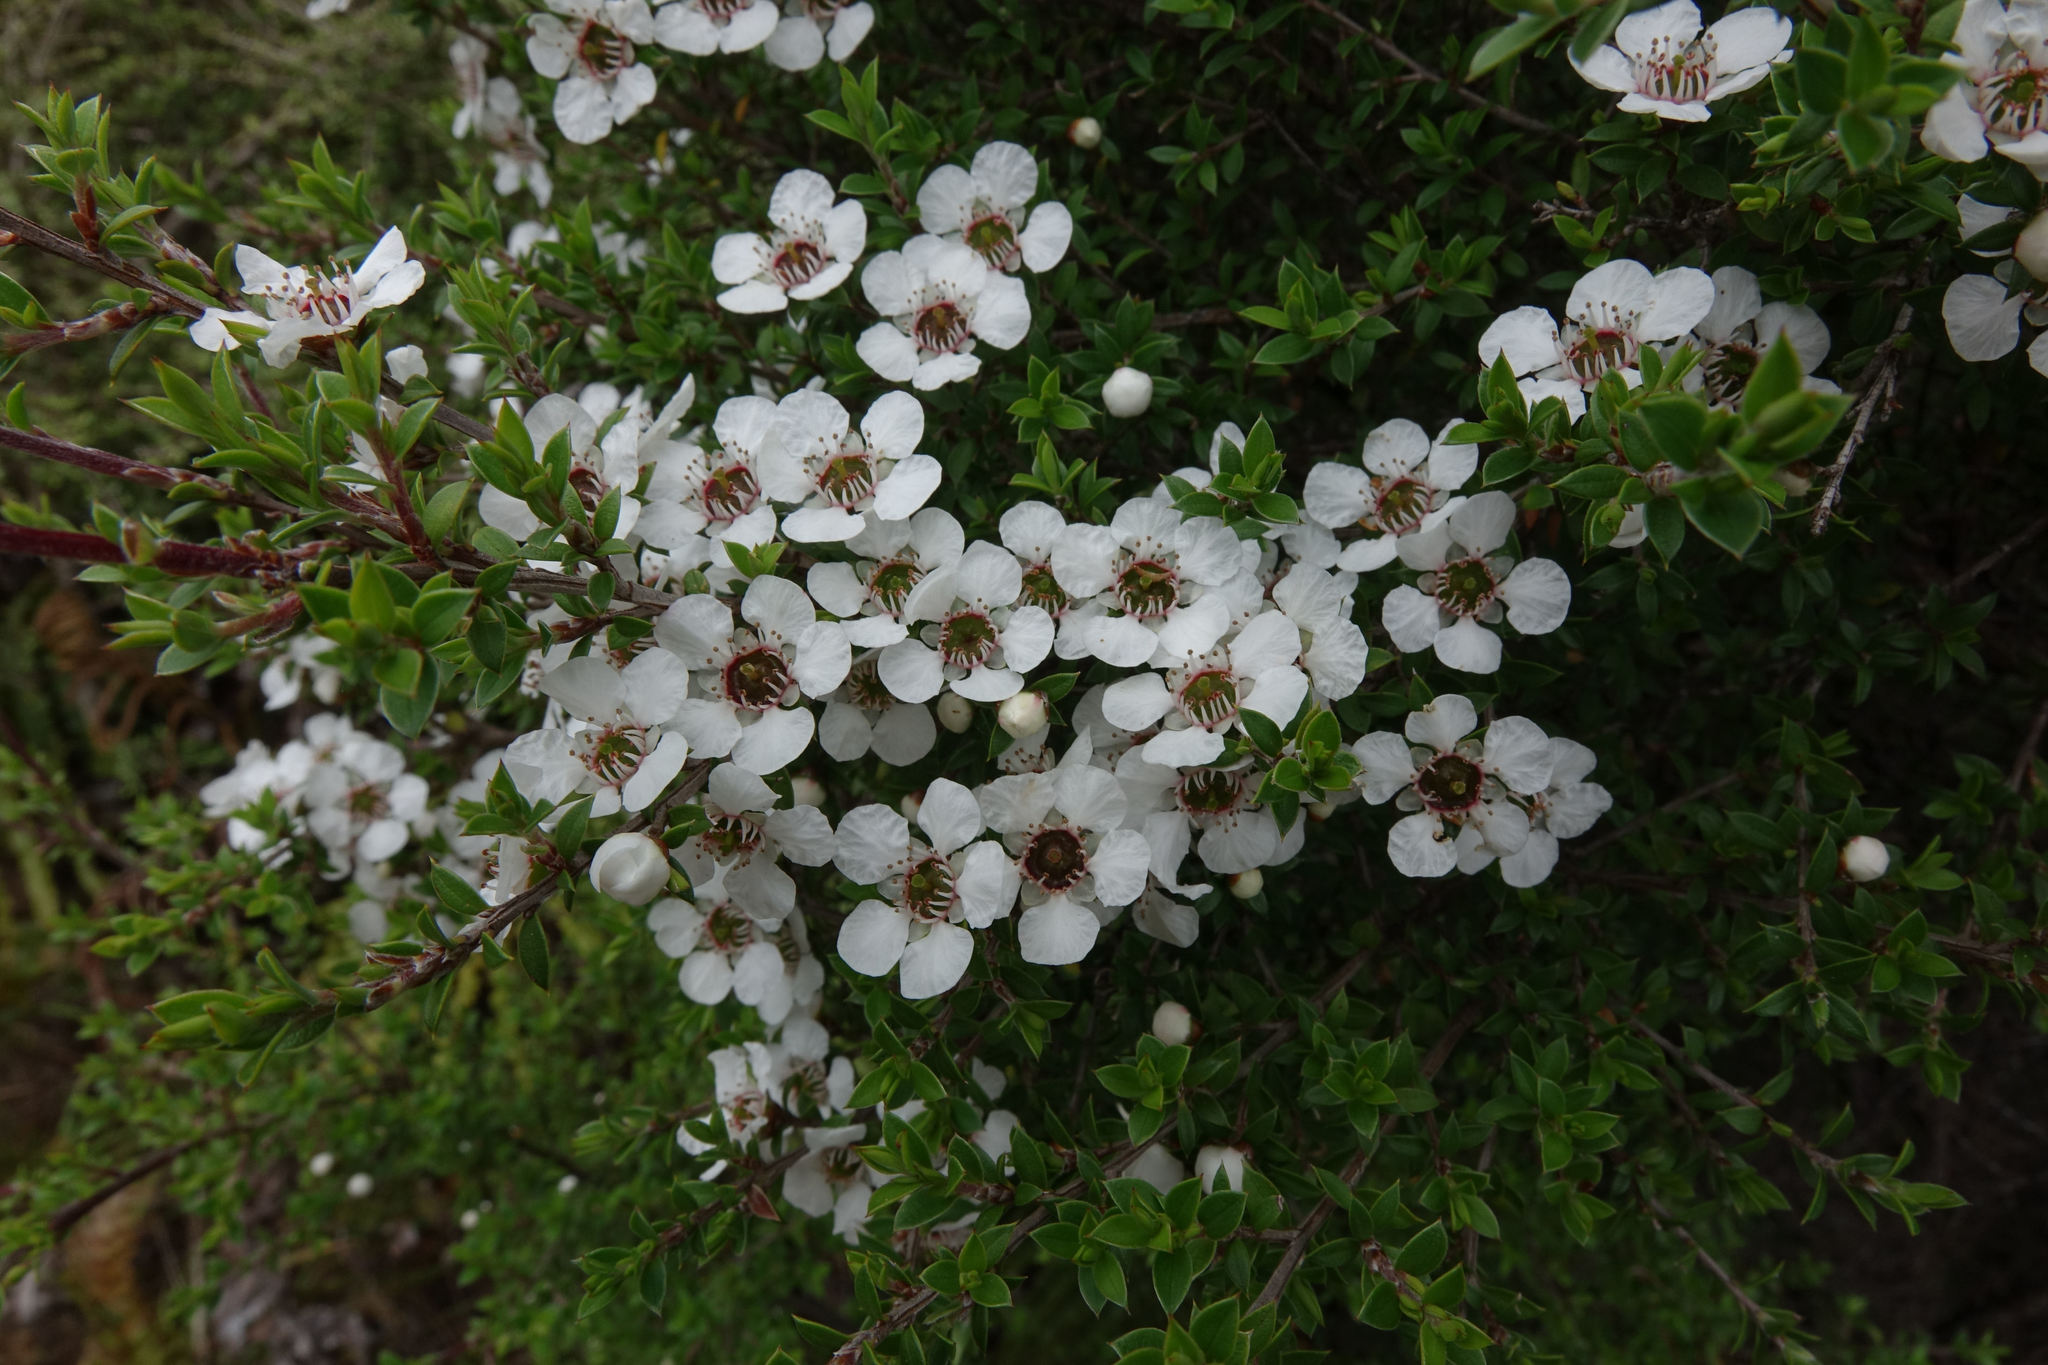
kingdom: Plantae
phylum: Tracheophyta
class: Magnoliopsida
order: Myrtales
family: Myrtaceae
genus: Leptospermum
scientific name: Leptospermum scoparium
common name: Broom tea-tree
